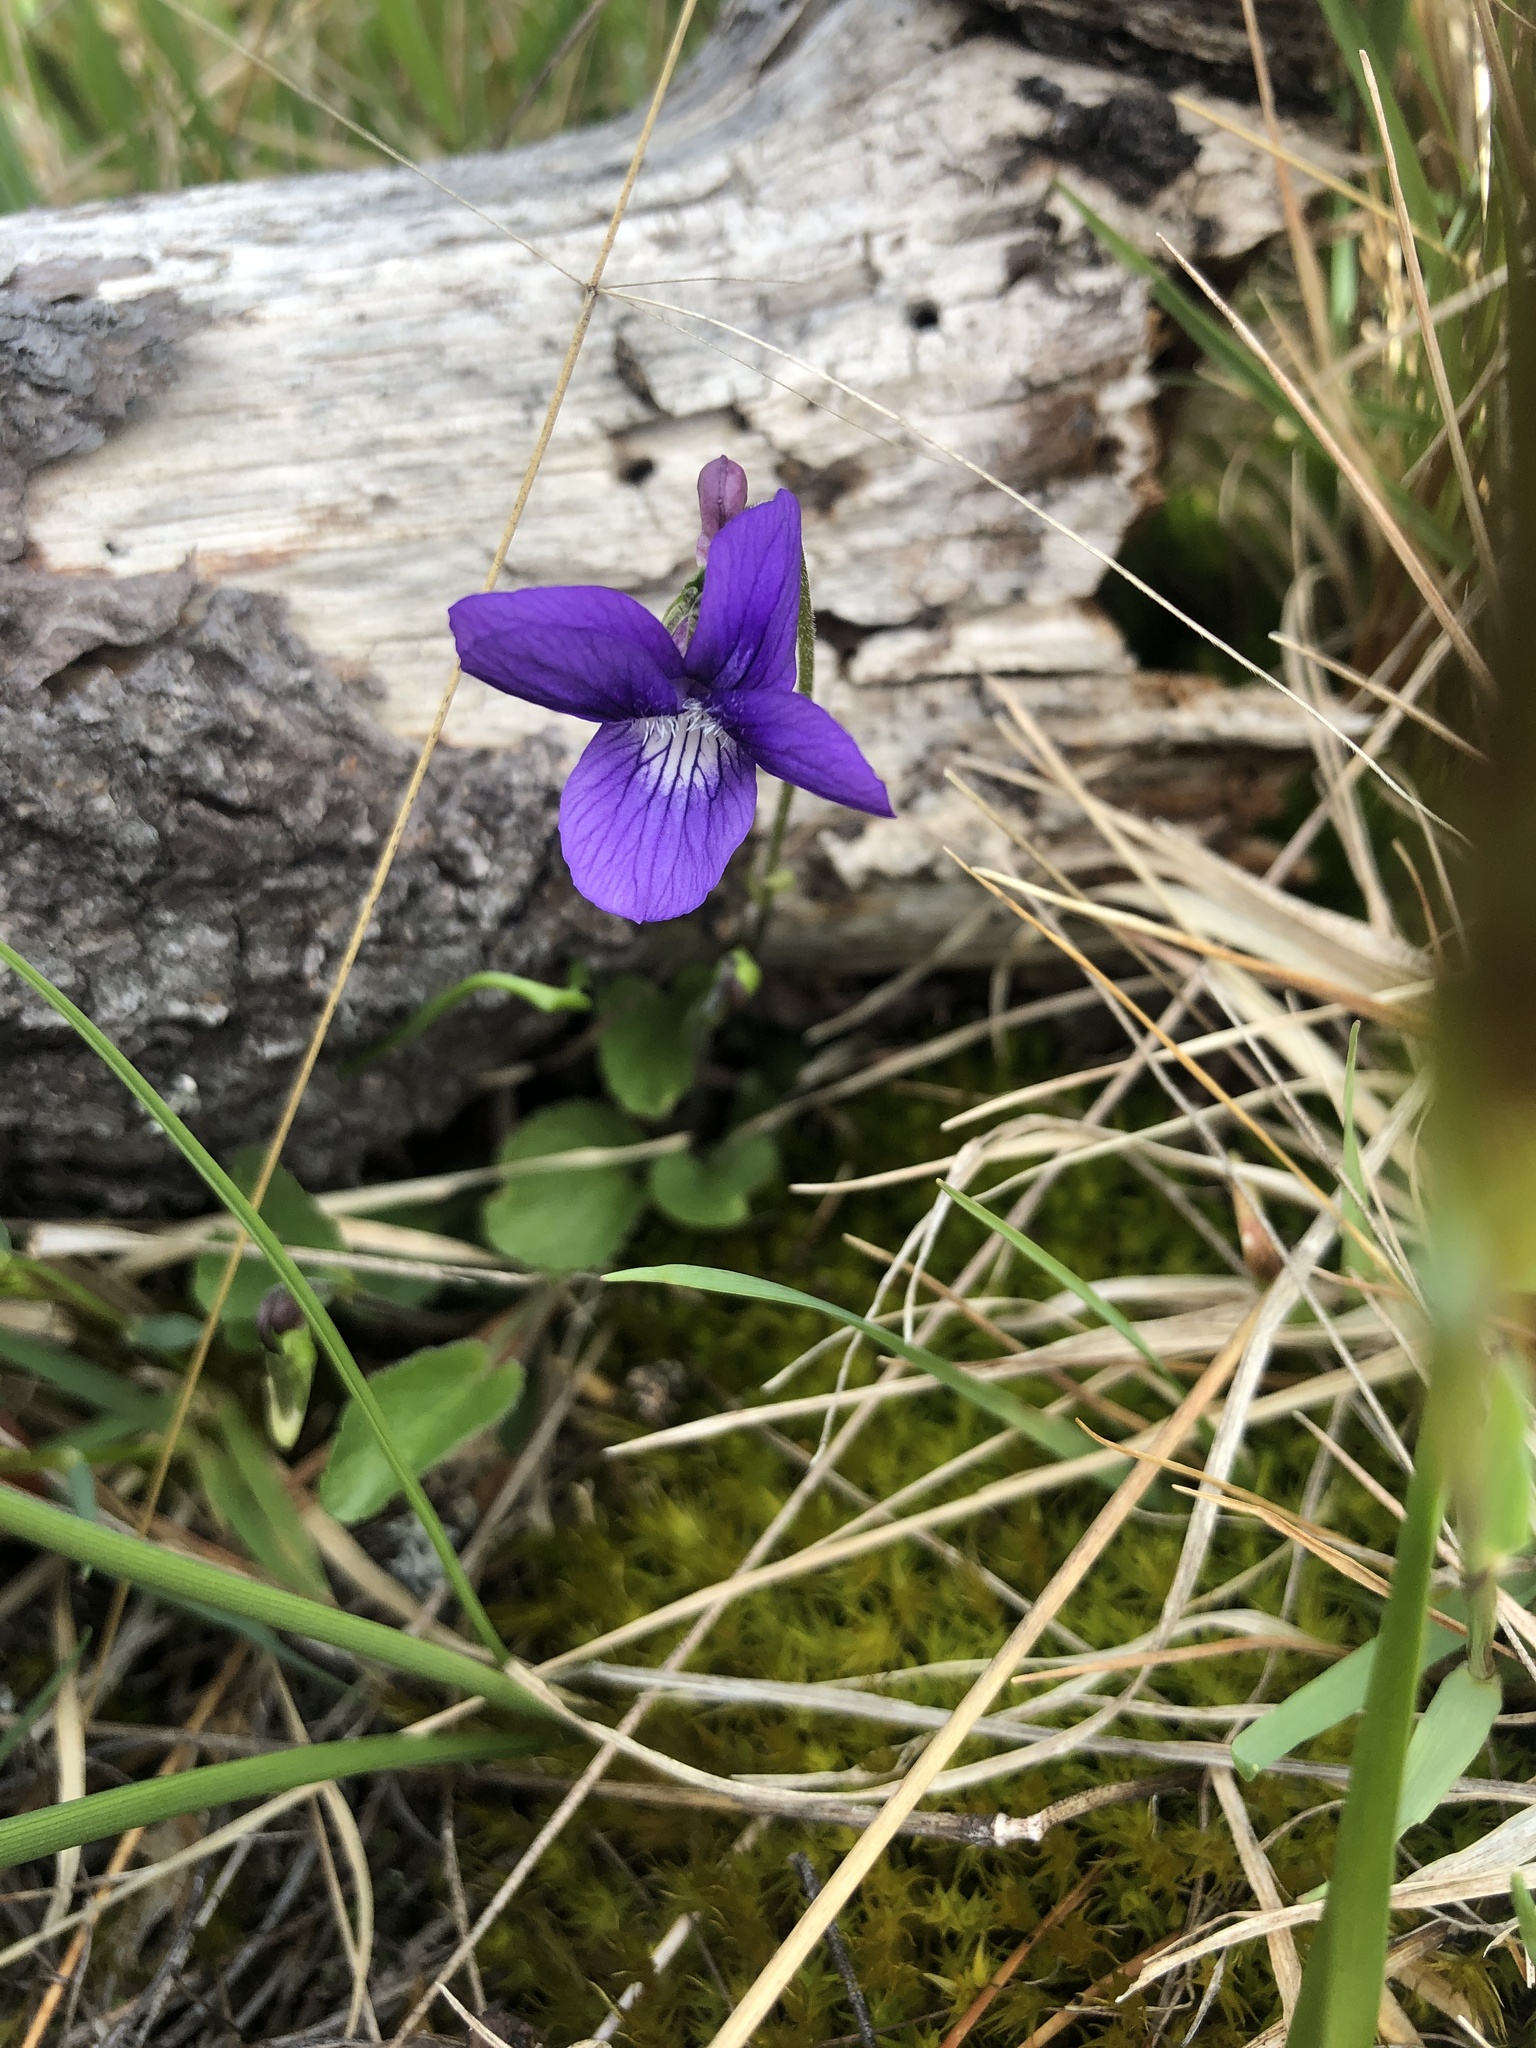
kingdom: Plantae
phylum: Tracheophyta
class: Magnoliopsida
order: Malpighiales
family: Violaceae
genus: Viola
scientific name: Viola adunca
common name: Sand violet
